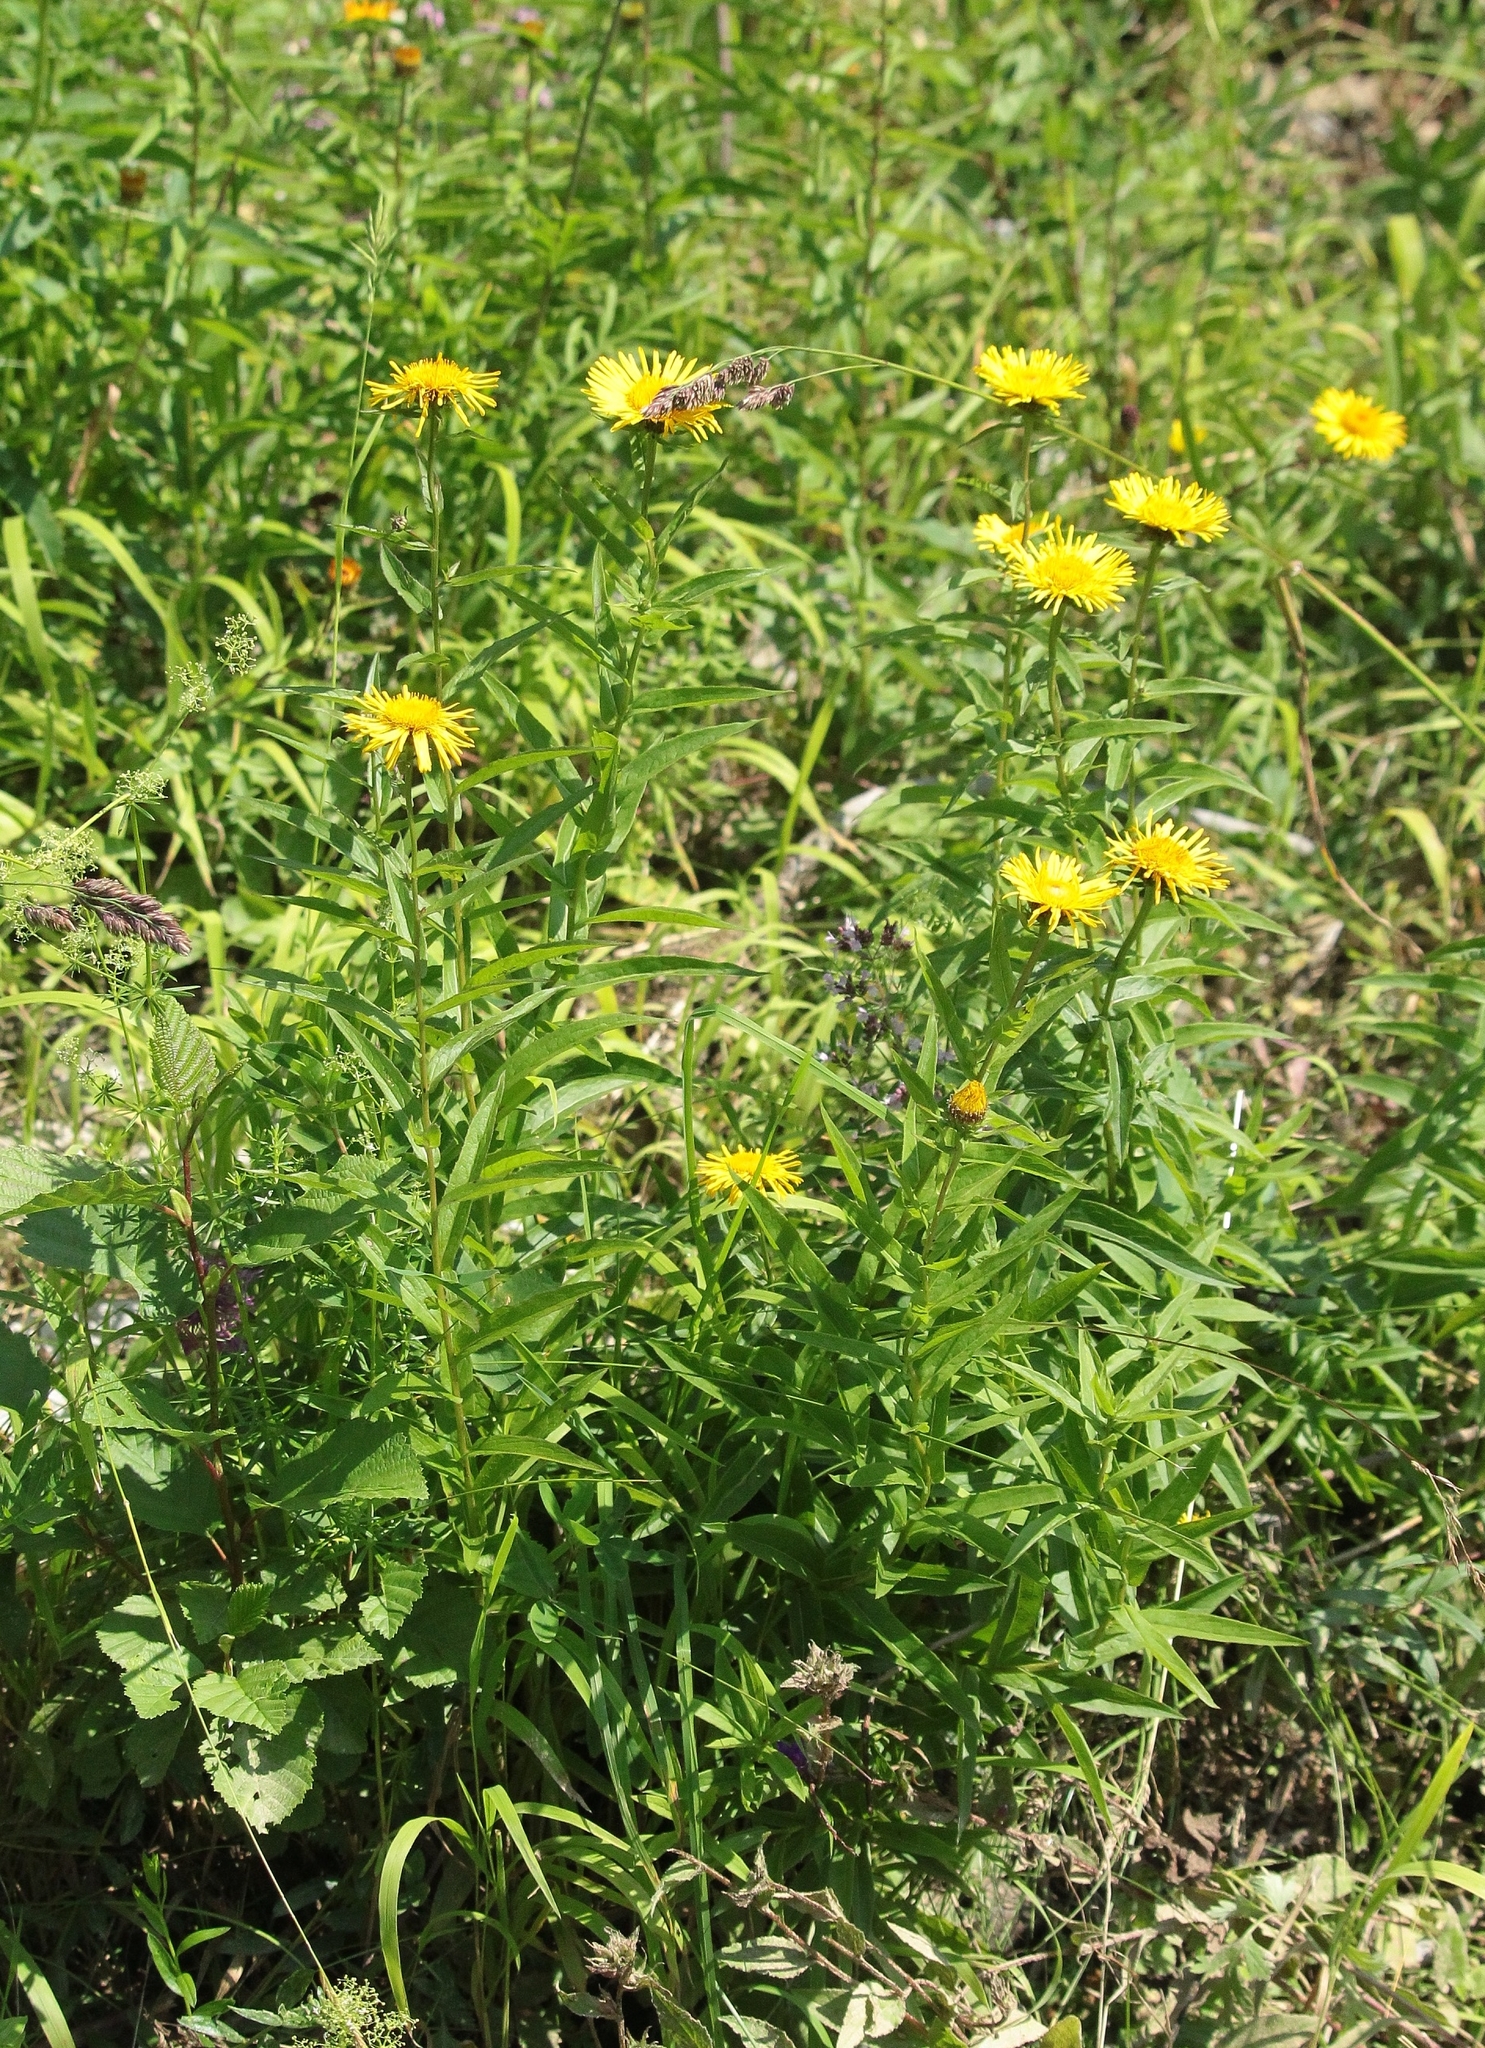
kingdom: Plantae
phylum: Tracheophyta
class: Magnoliopsida
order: Asterales
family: Asteraceae
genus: Pentanema
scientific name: Pentanema salicinum
